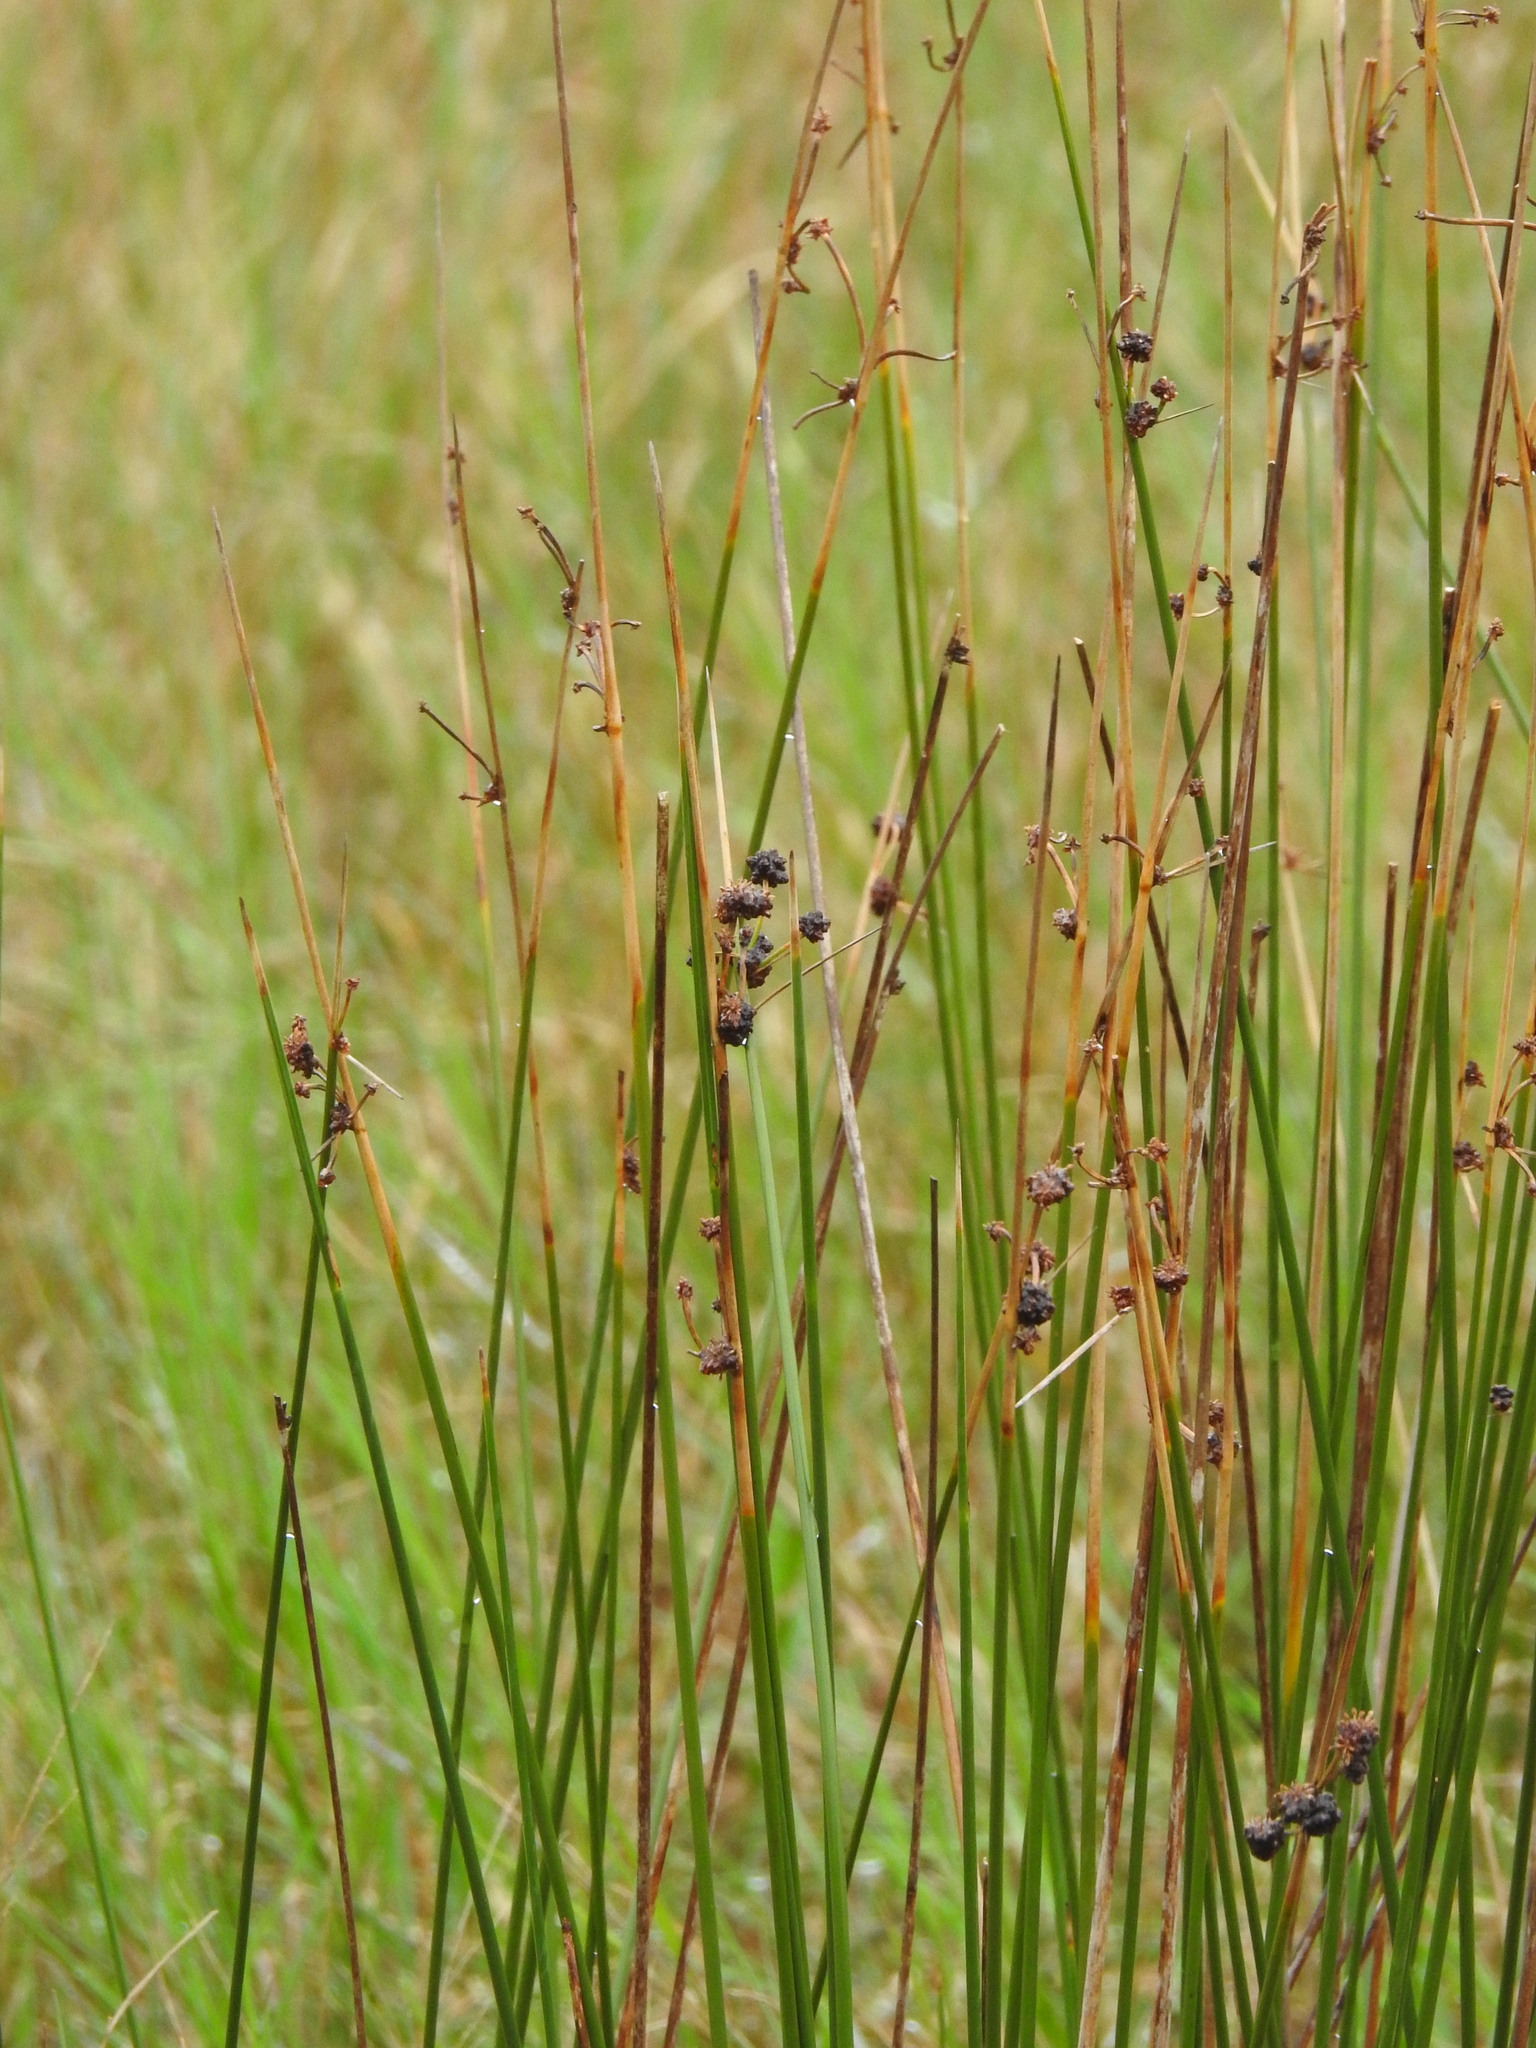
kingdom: Plantae
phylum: Tracheophyta
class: Liliopsida
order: Poales
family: Cyperaceae
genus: Scirpoides
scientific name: Scirpoides holoschoenus
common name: Round-headed club-rush
